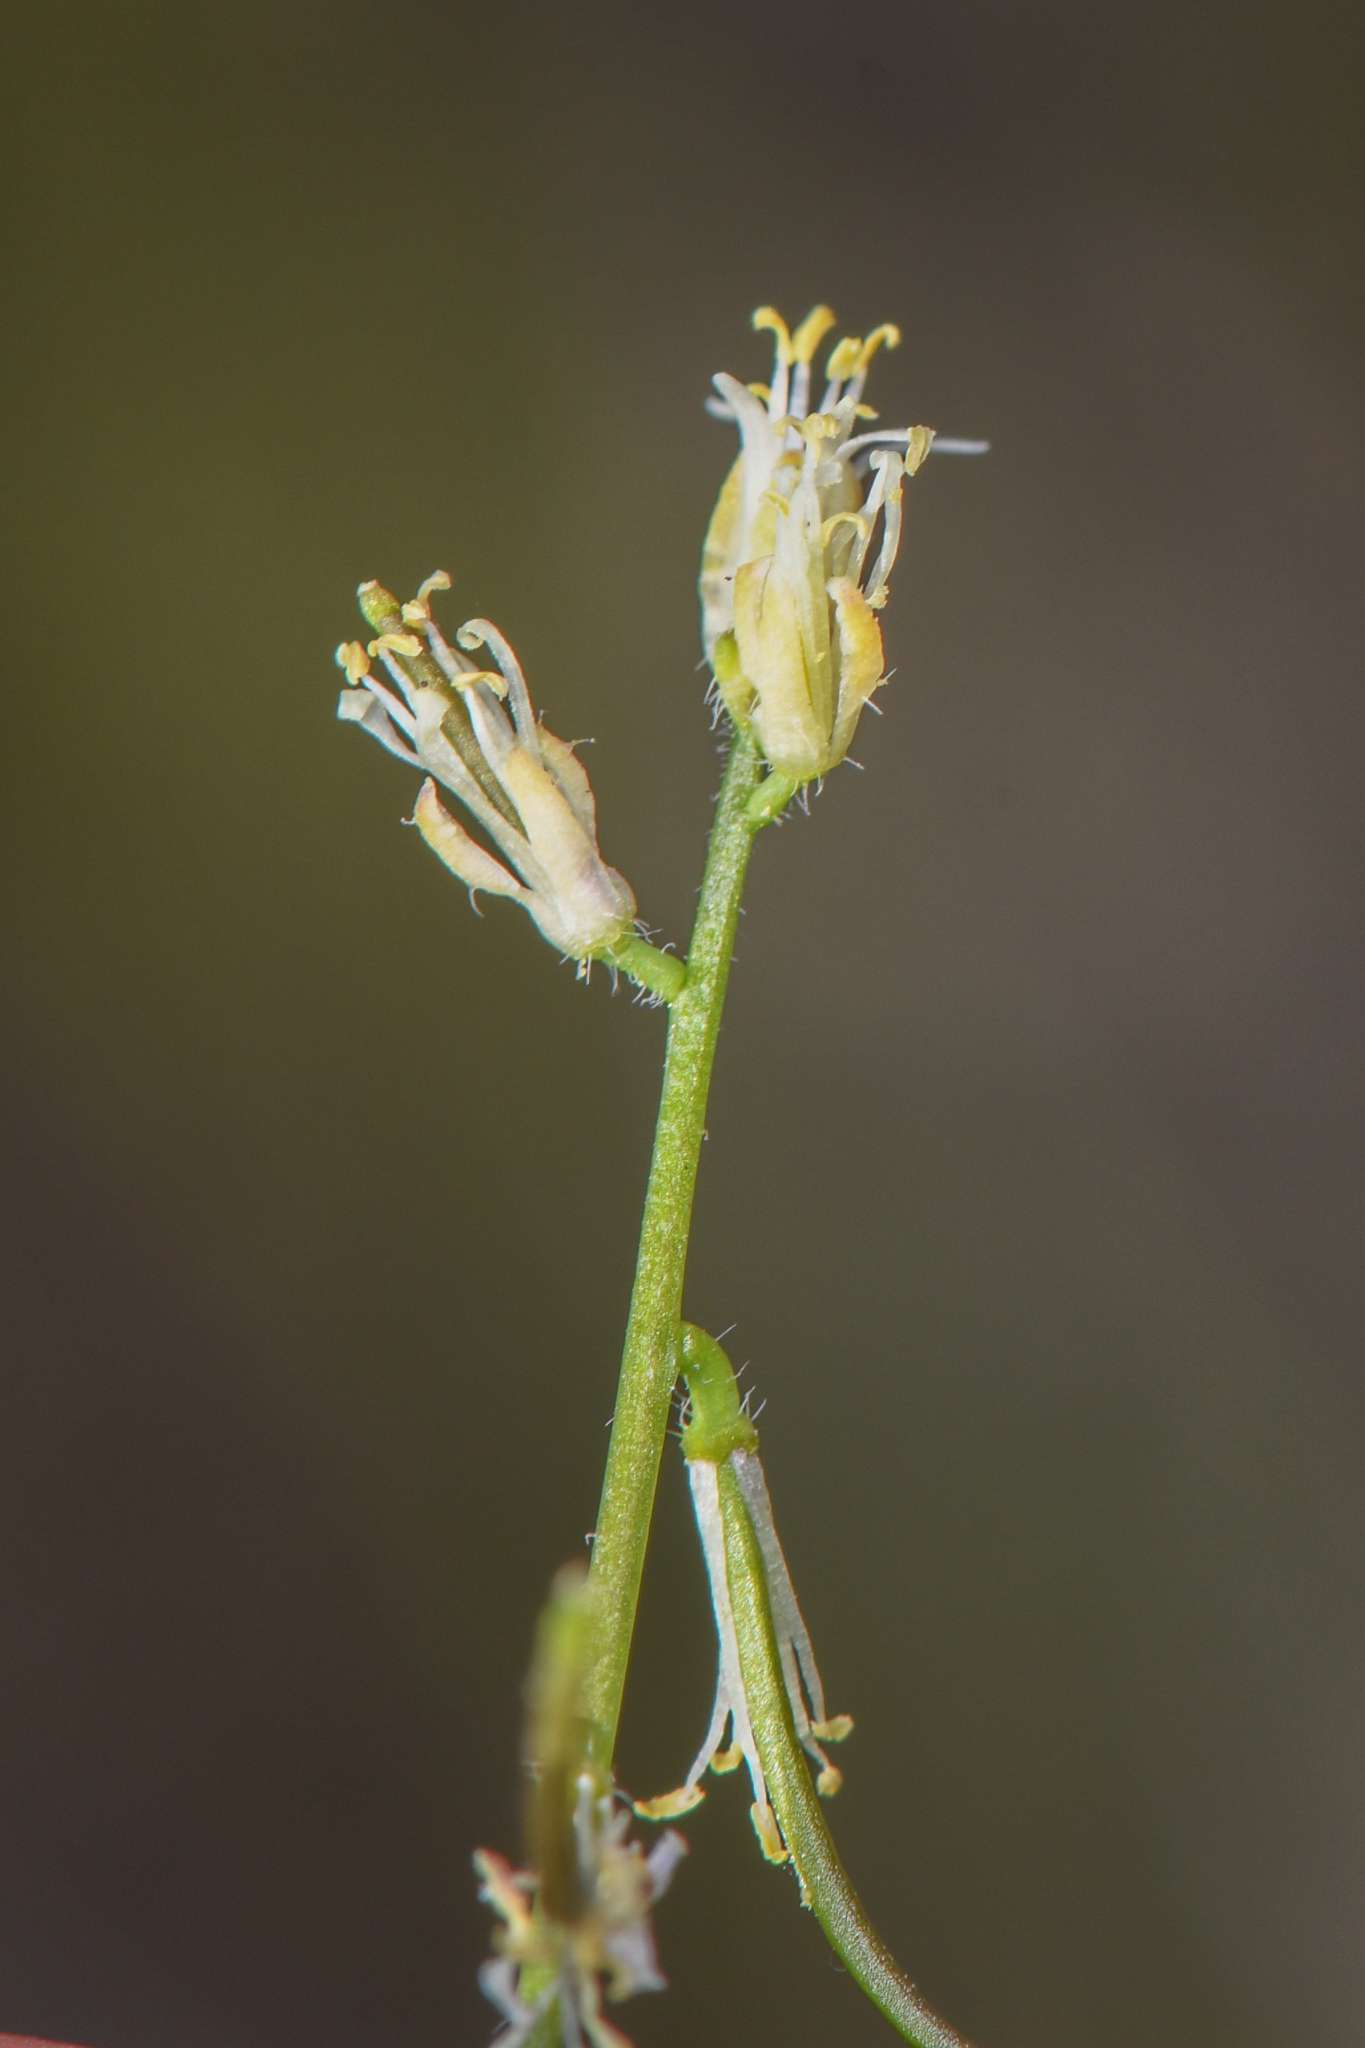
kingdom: Plantae
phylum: Tracheophyta
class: Magnoliopsida
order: Brassicales
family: Brassicaceae
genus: Streptanthus
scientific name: Streptanthus lasiophyllus
